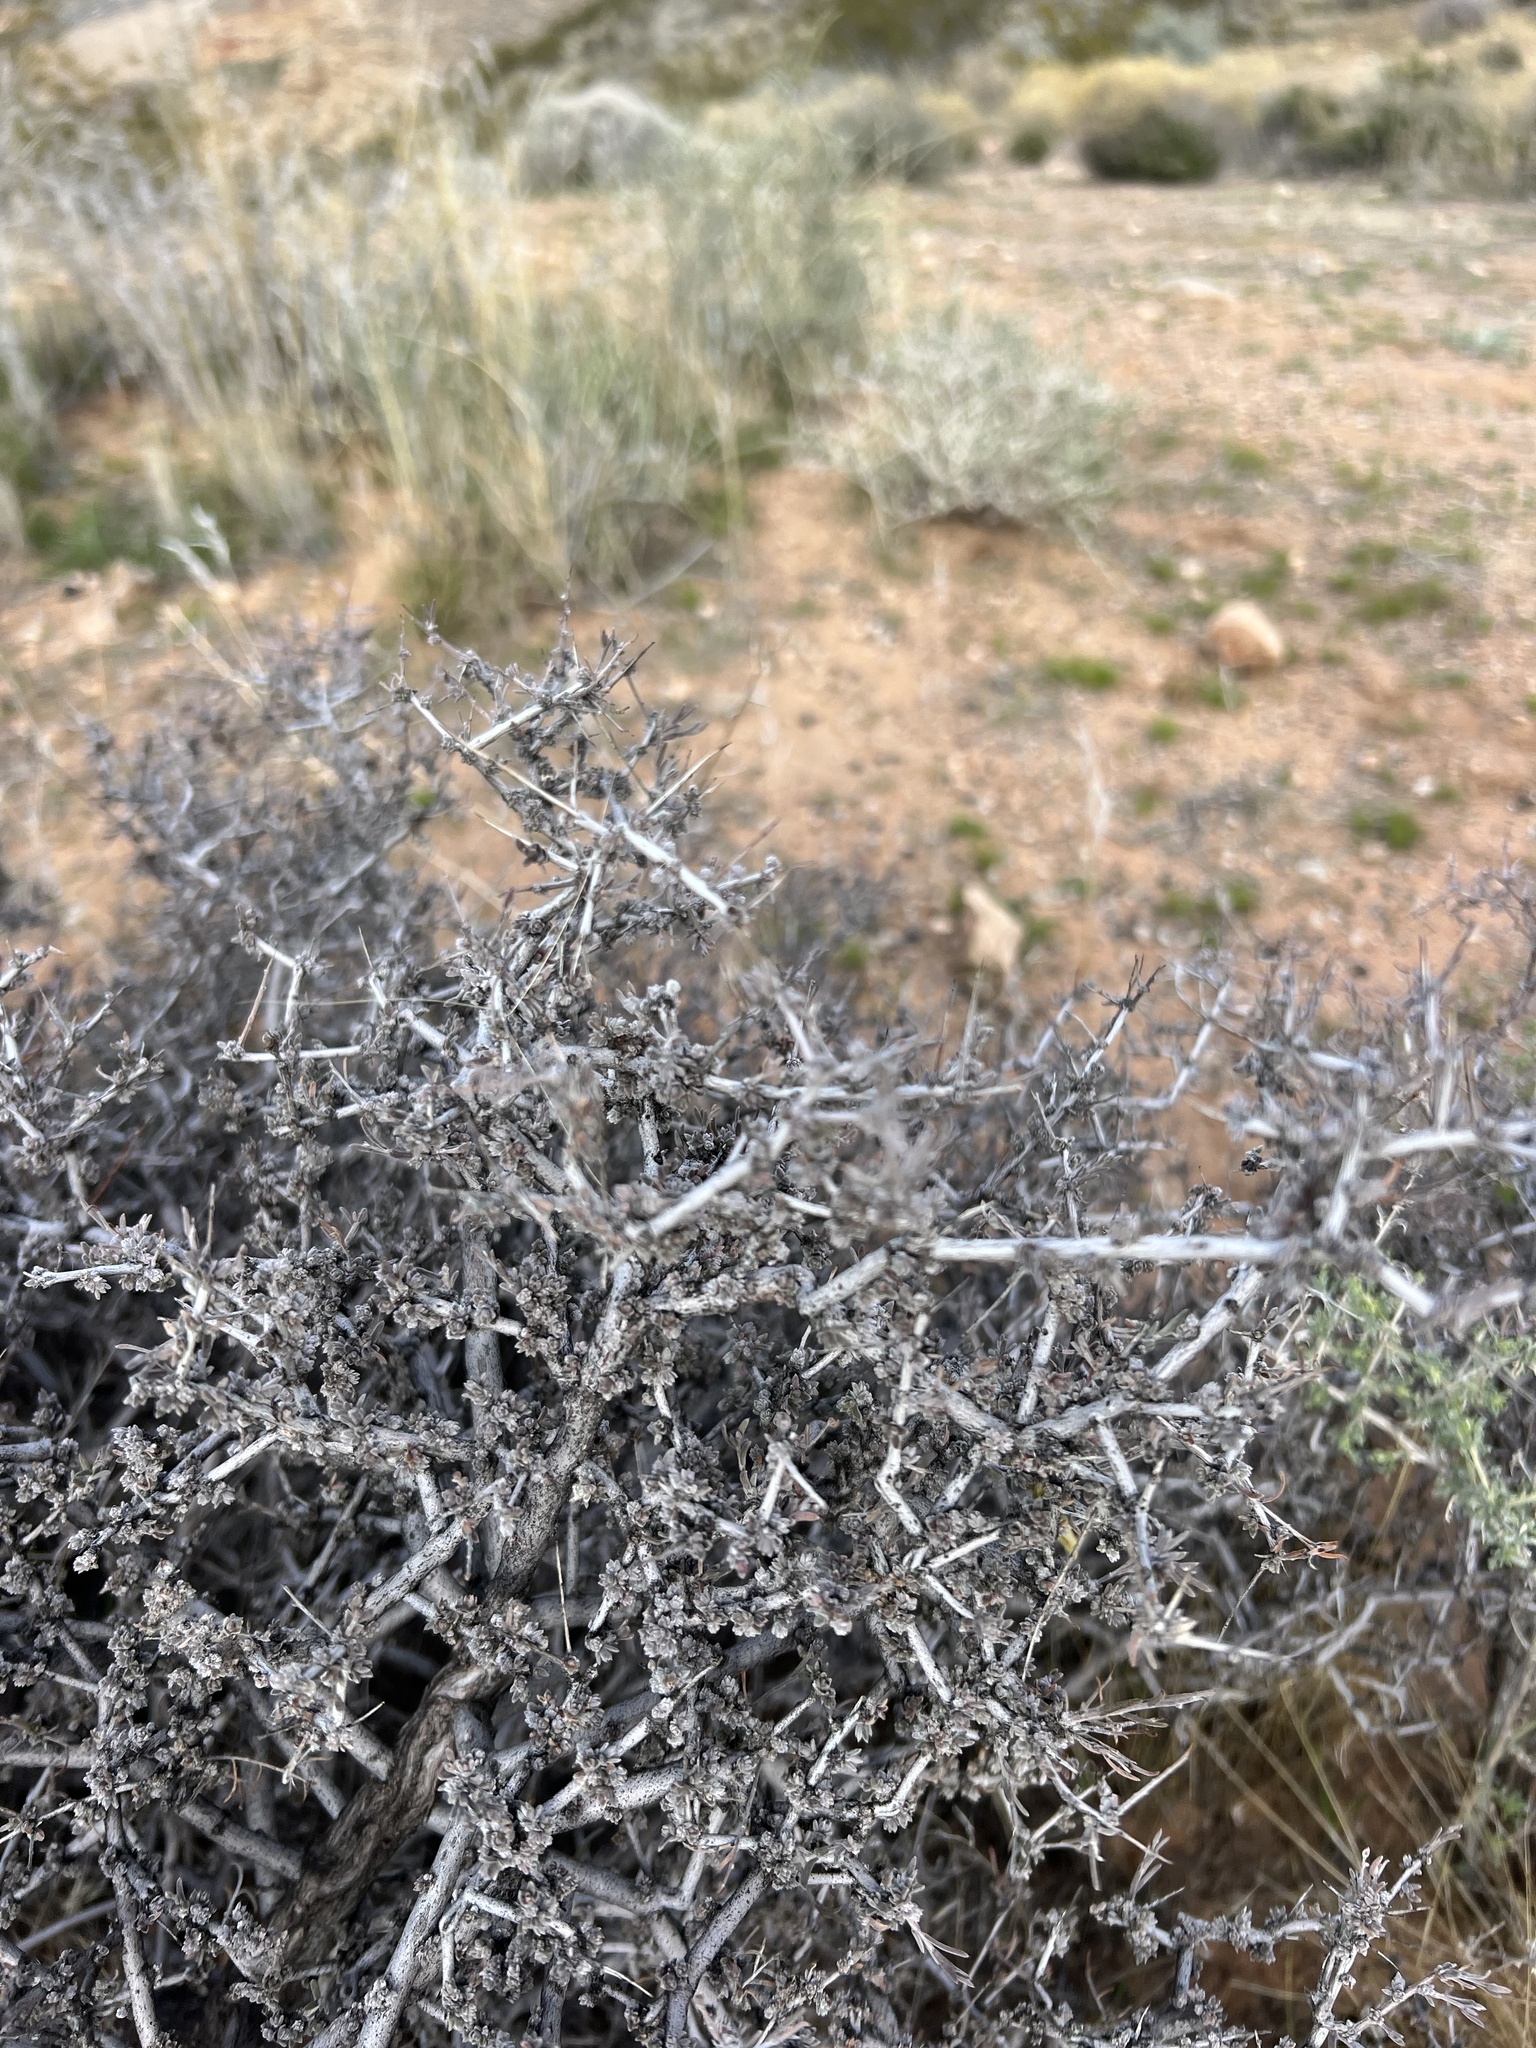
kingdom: Plantae
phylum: Tracheophyta
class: Magnoliopsida
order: Rosales
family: Rosaceae
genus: Coleogyne
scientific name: Coleogyne ramosissima
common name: Blackbrush
